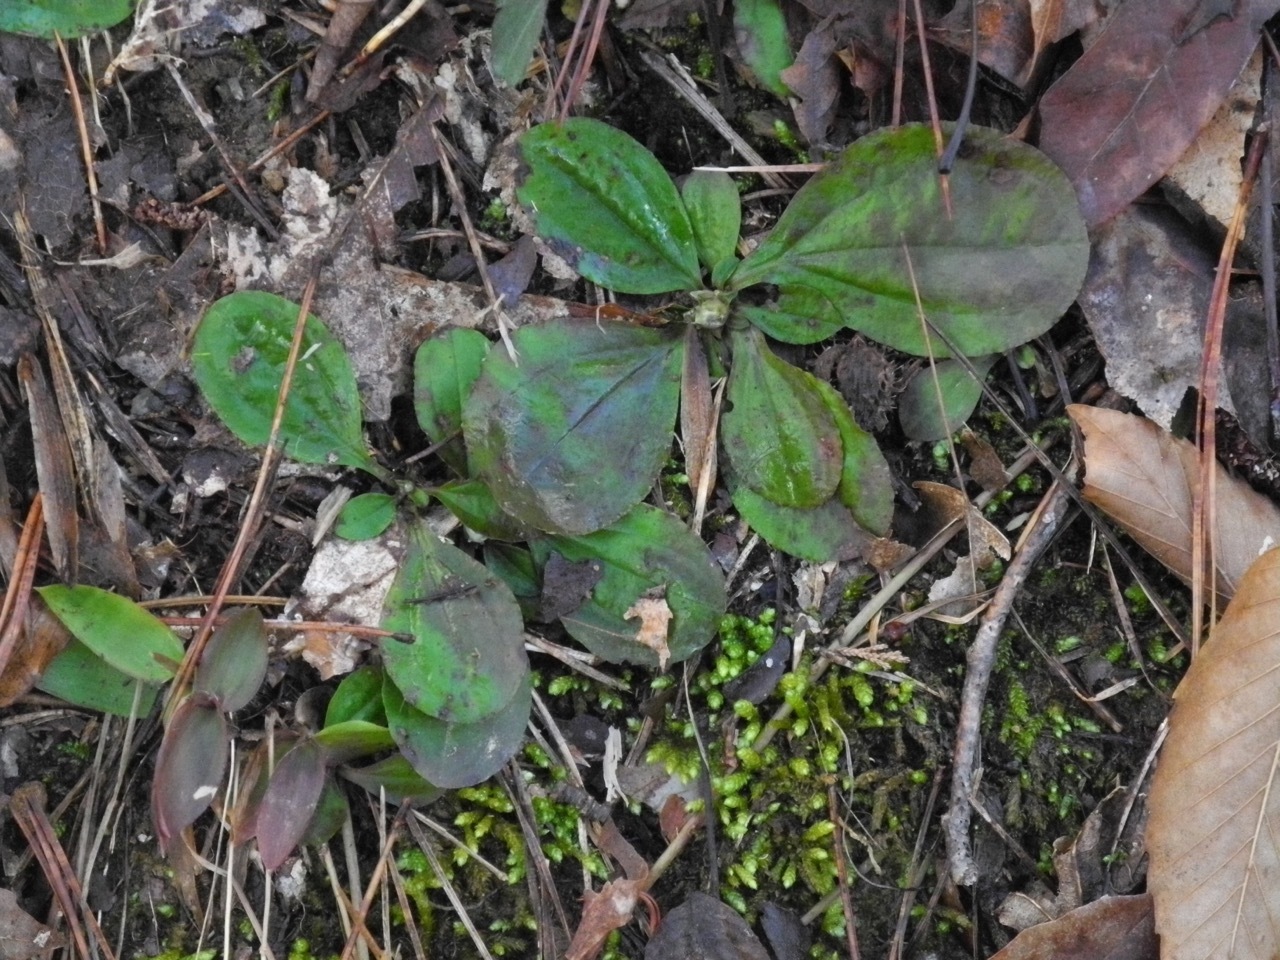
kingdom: Plantae
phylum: Tracheophyta
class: Magnoliopsida
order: Asterales
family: Asteraceae
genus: Antennaria
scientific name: Antennaria plantaginifolia
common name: Plantain-leaved pussytoes
